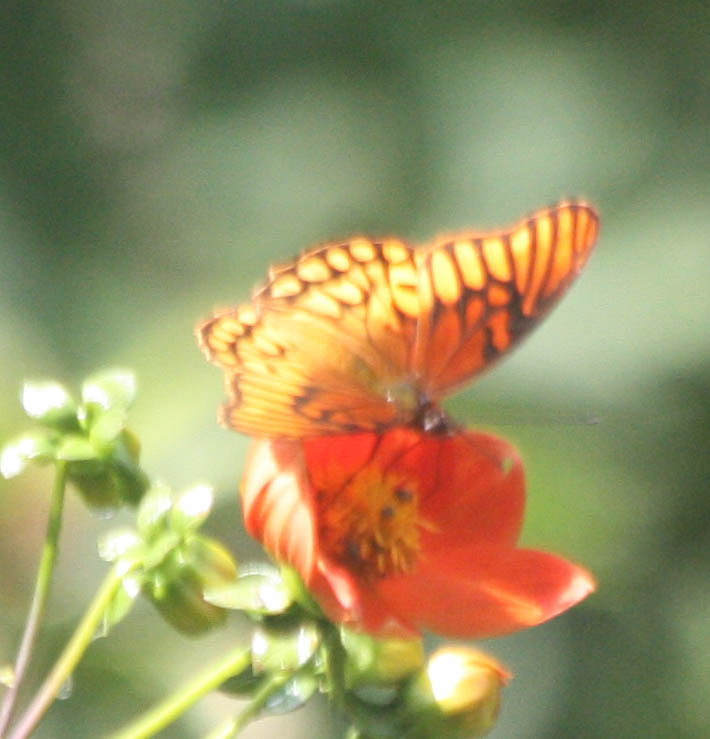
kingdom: Animalia
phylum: Arthropoda
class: Insecta
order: Lepidoptera
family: Nymphalidae
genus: Dione
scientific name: Dione moneta
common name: Mexican silverspot
